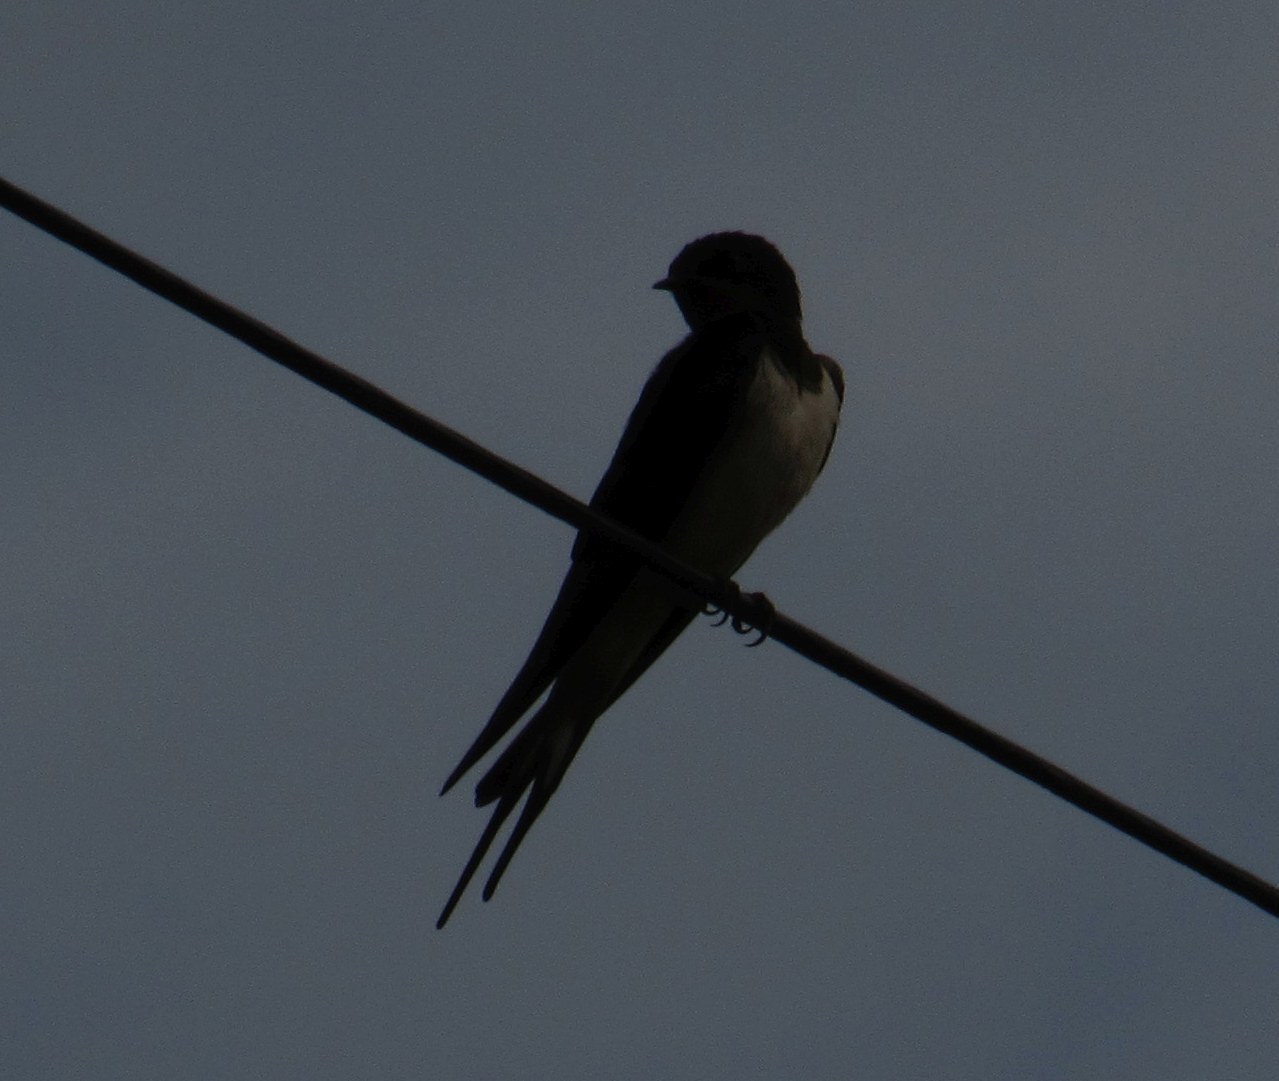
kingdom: Animalia
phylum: Chordata
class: Aves
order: Passeriformes
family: Hirundinidae
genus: Hirundo
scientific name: Hirundo rustica
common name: Barn swallow
